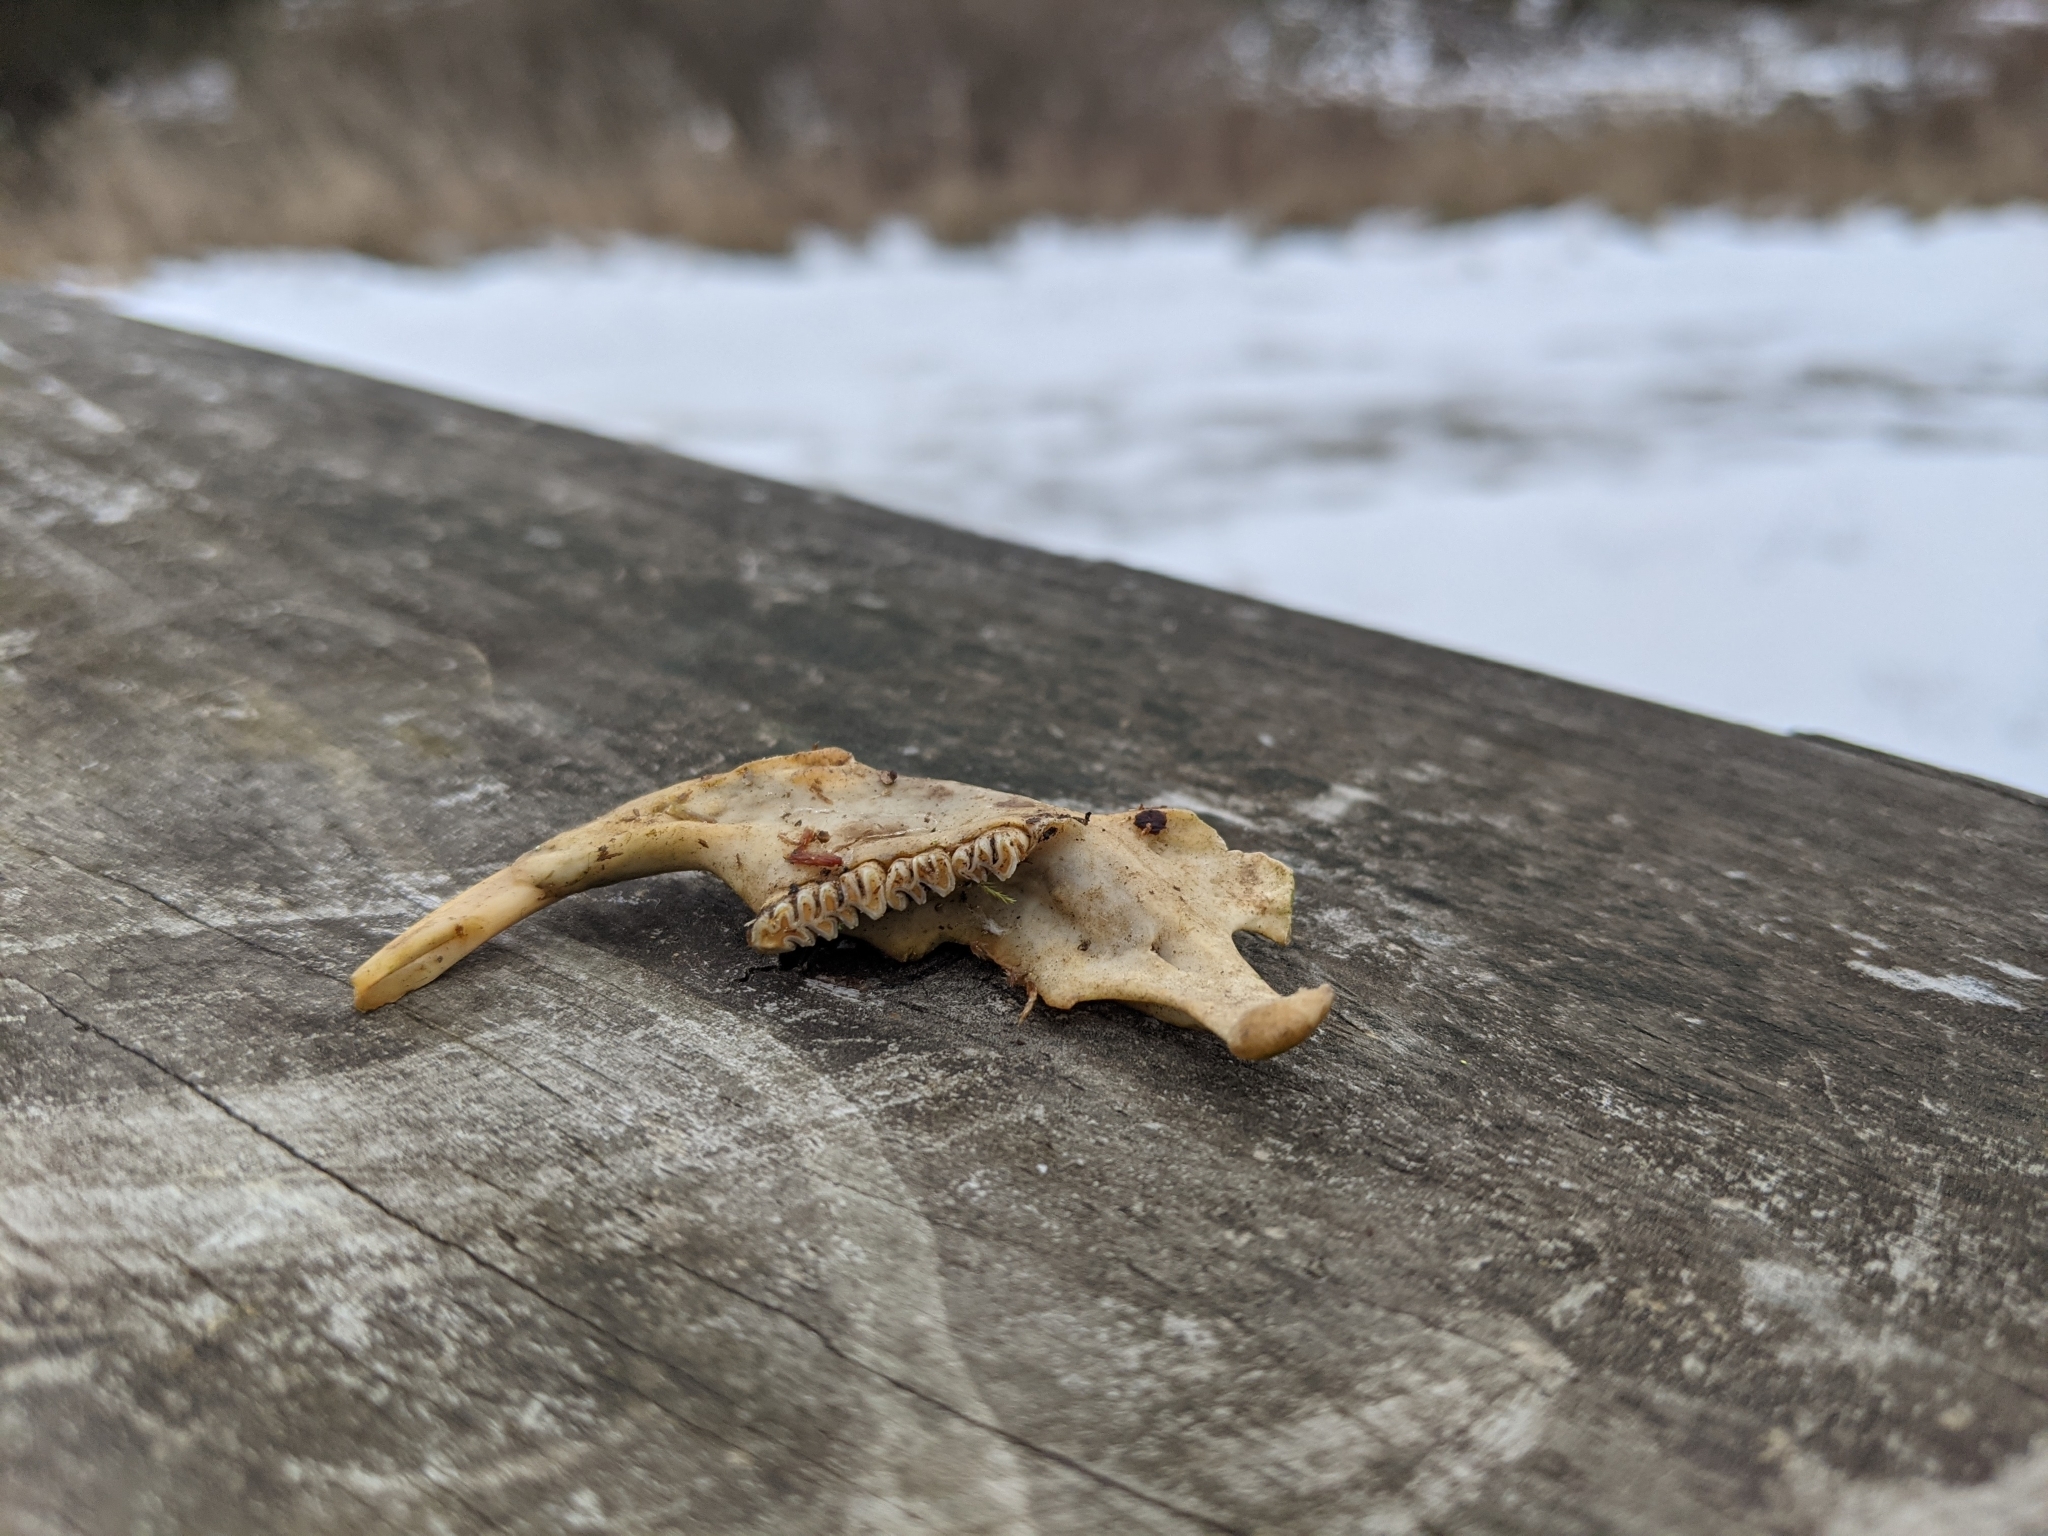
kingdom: Animalia
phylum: Chordata
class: Mammalia
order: Rodentia
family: Cricetidae
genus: Ondatra
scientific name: Ondatra zibethicus
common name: Muskrat
